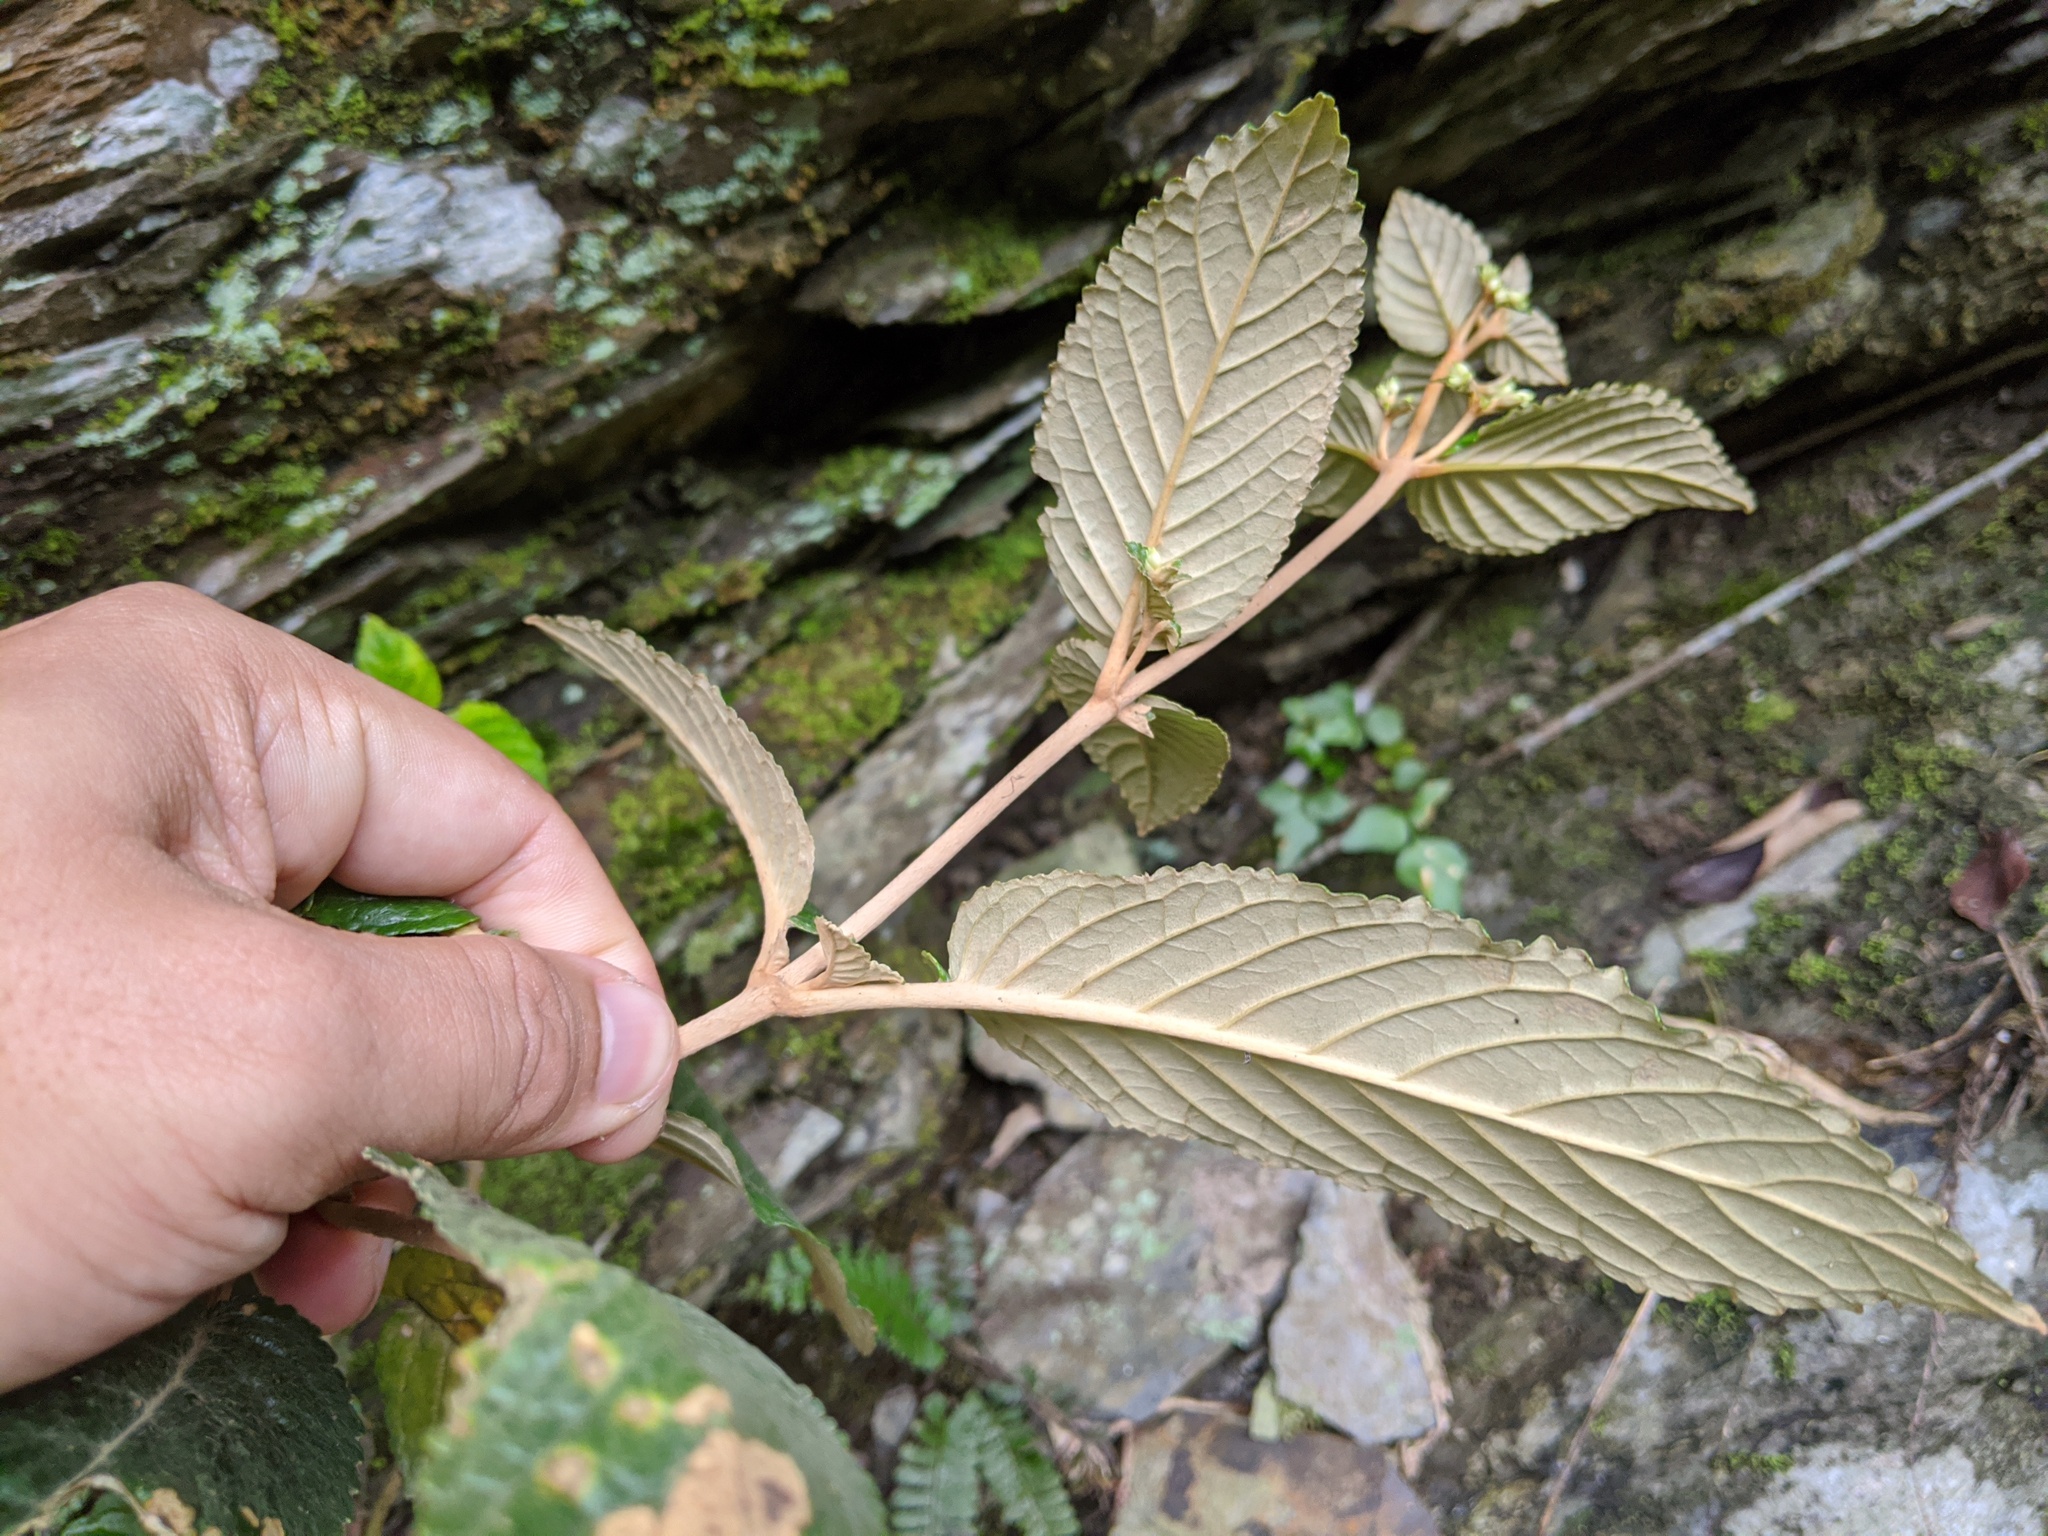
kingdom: Plantae
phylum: Tracheophyta
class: Magnoliopsida
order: Lamiales
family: Gesneriaceae
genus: Paraboea
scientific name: Paraboea swinhoei
